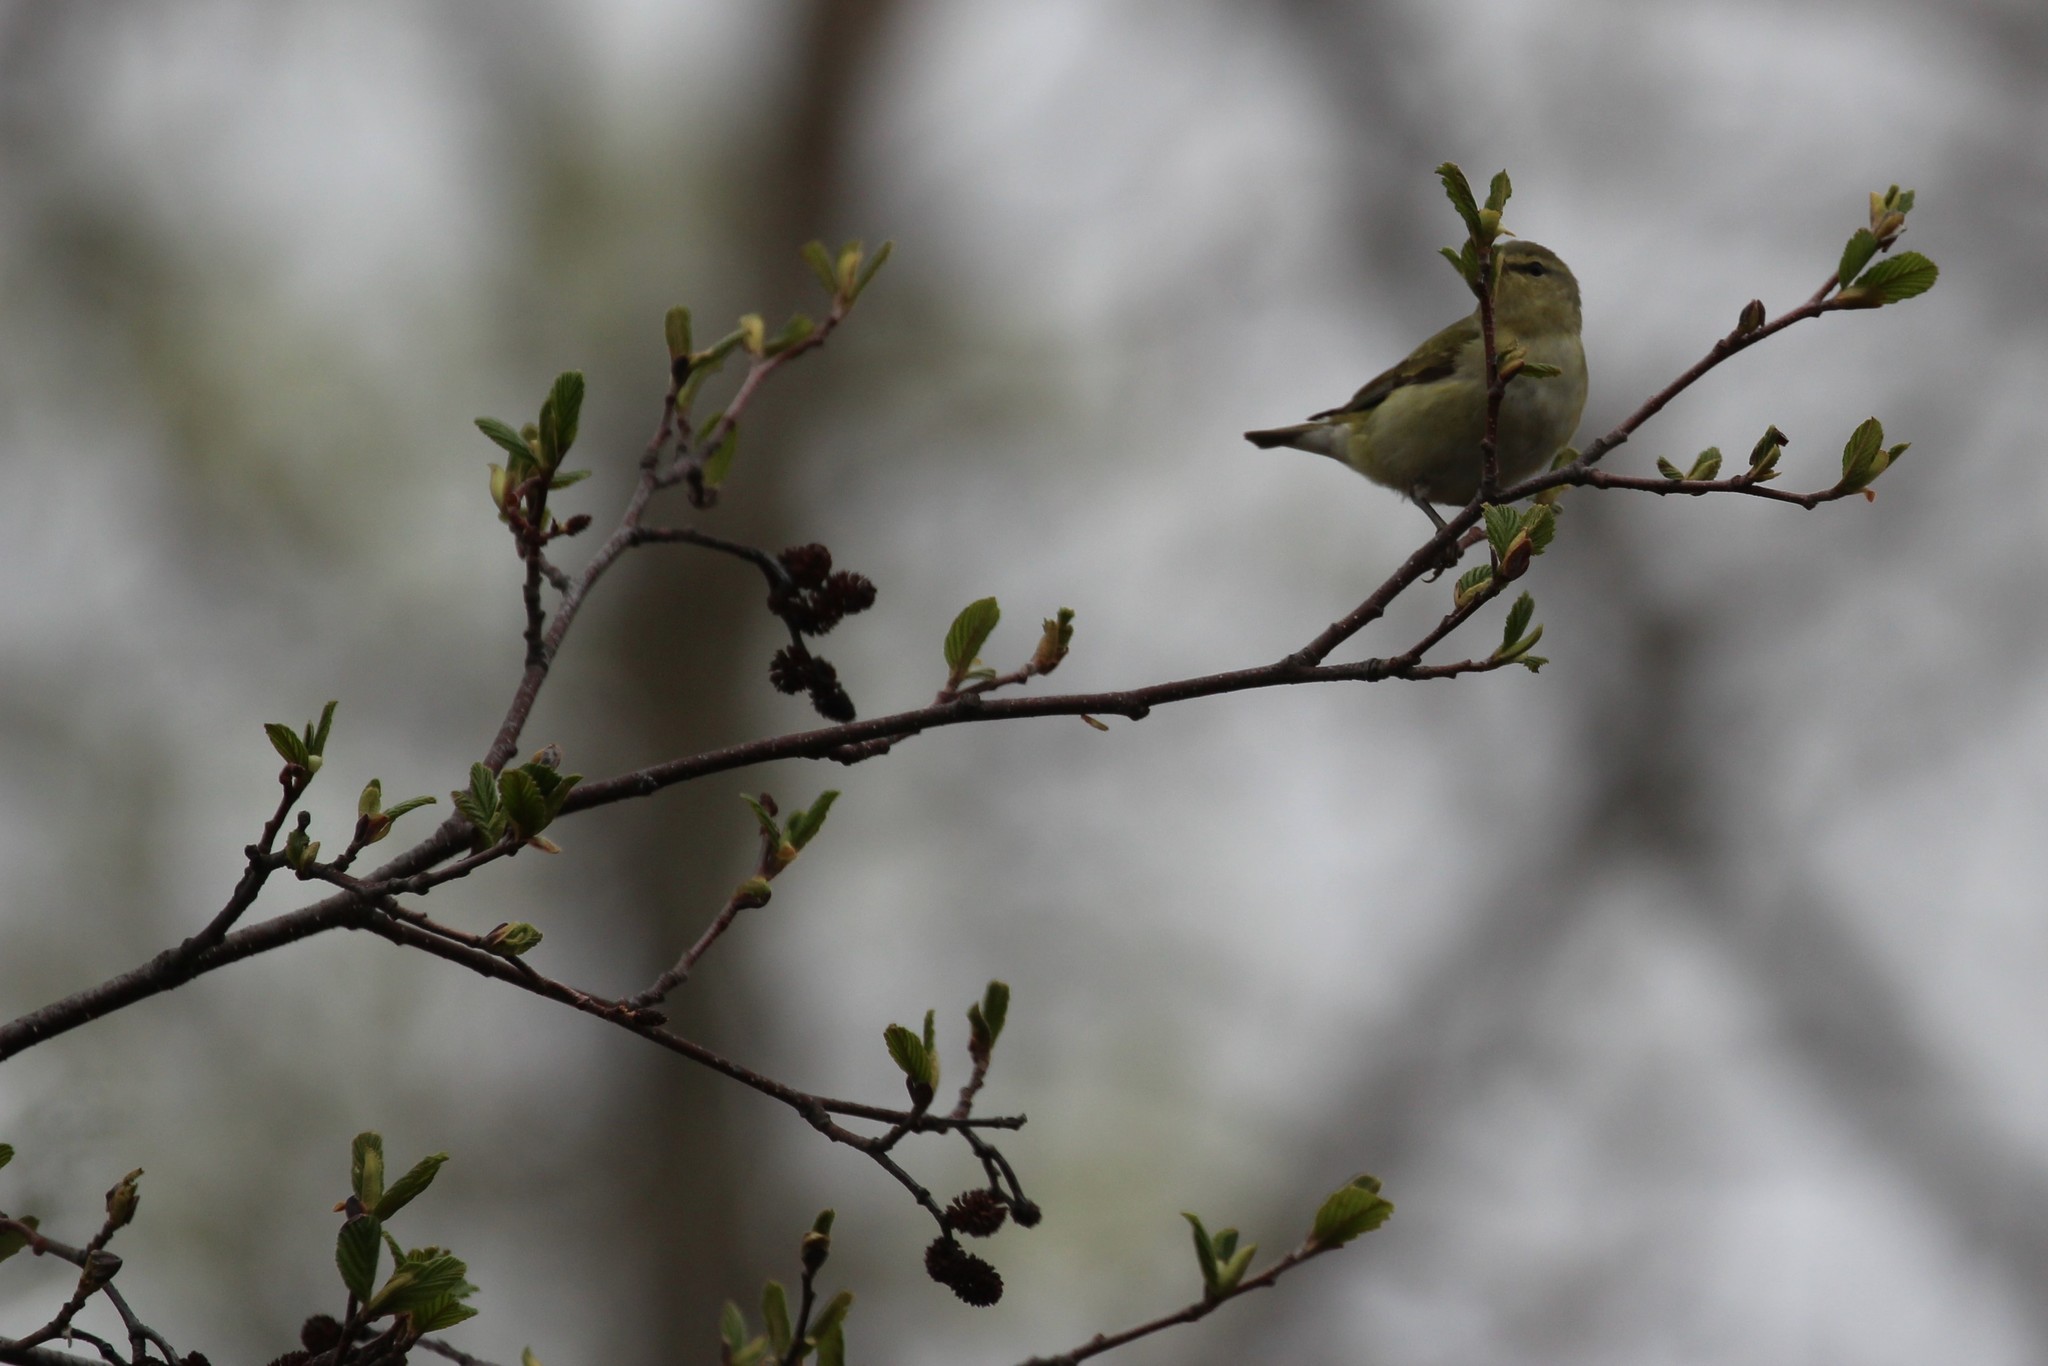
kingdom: Animalia
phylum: Chordata
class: Aves
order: Passeriformes
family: Parulidae
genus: Leiothlypis
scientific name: Leiothlypis peregrina
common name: Tennessee warbler
